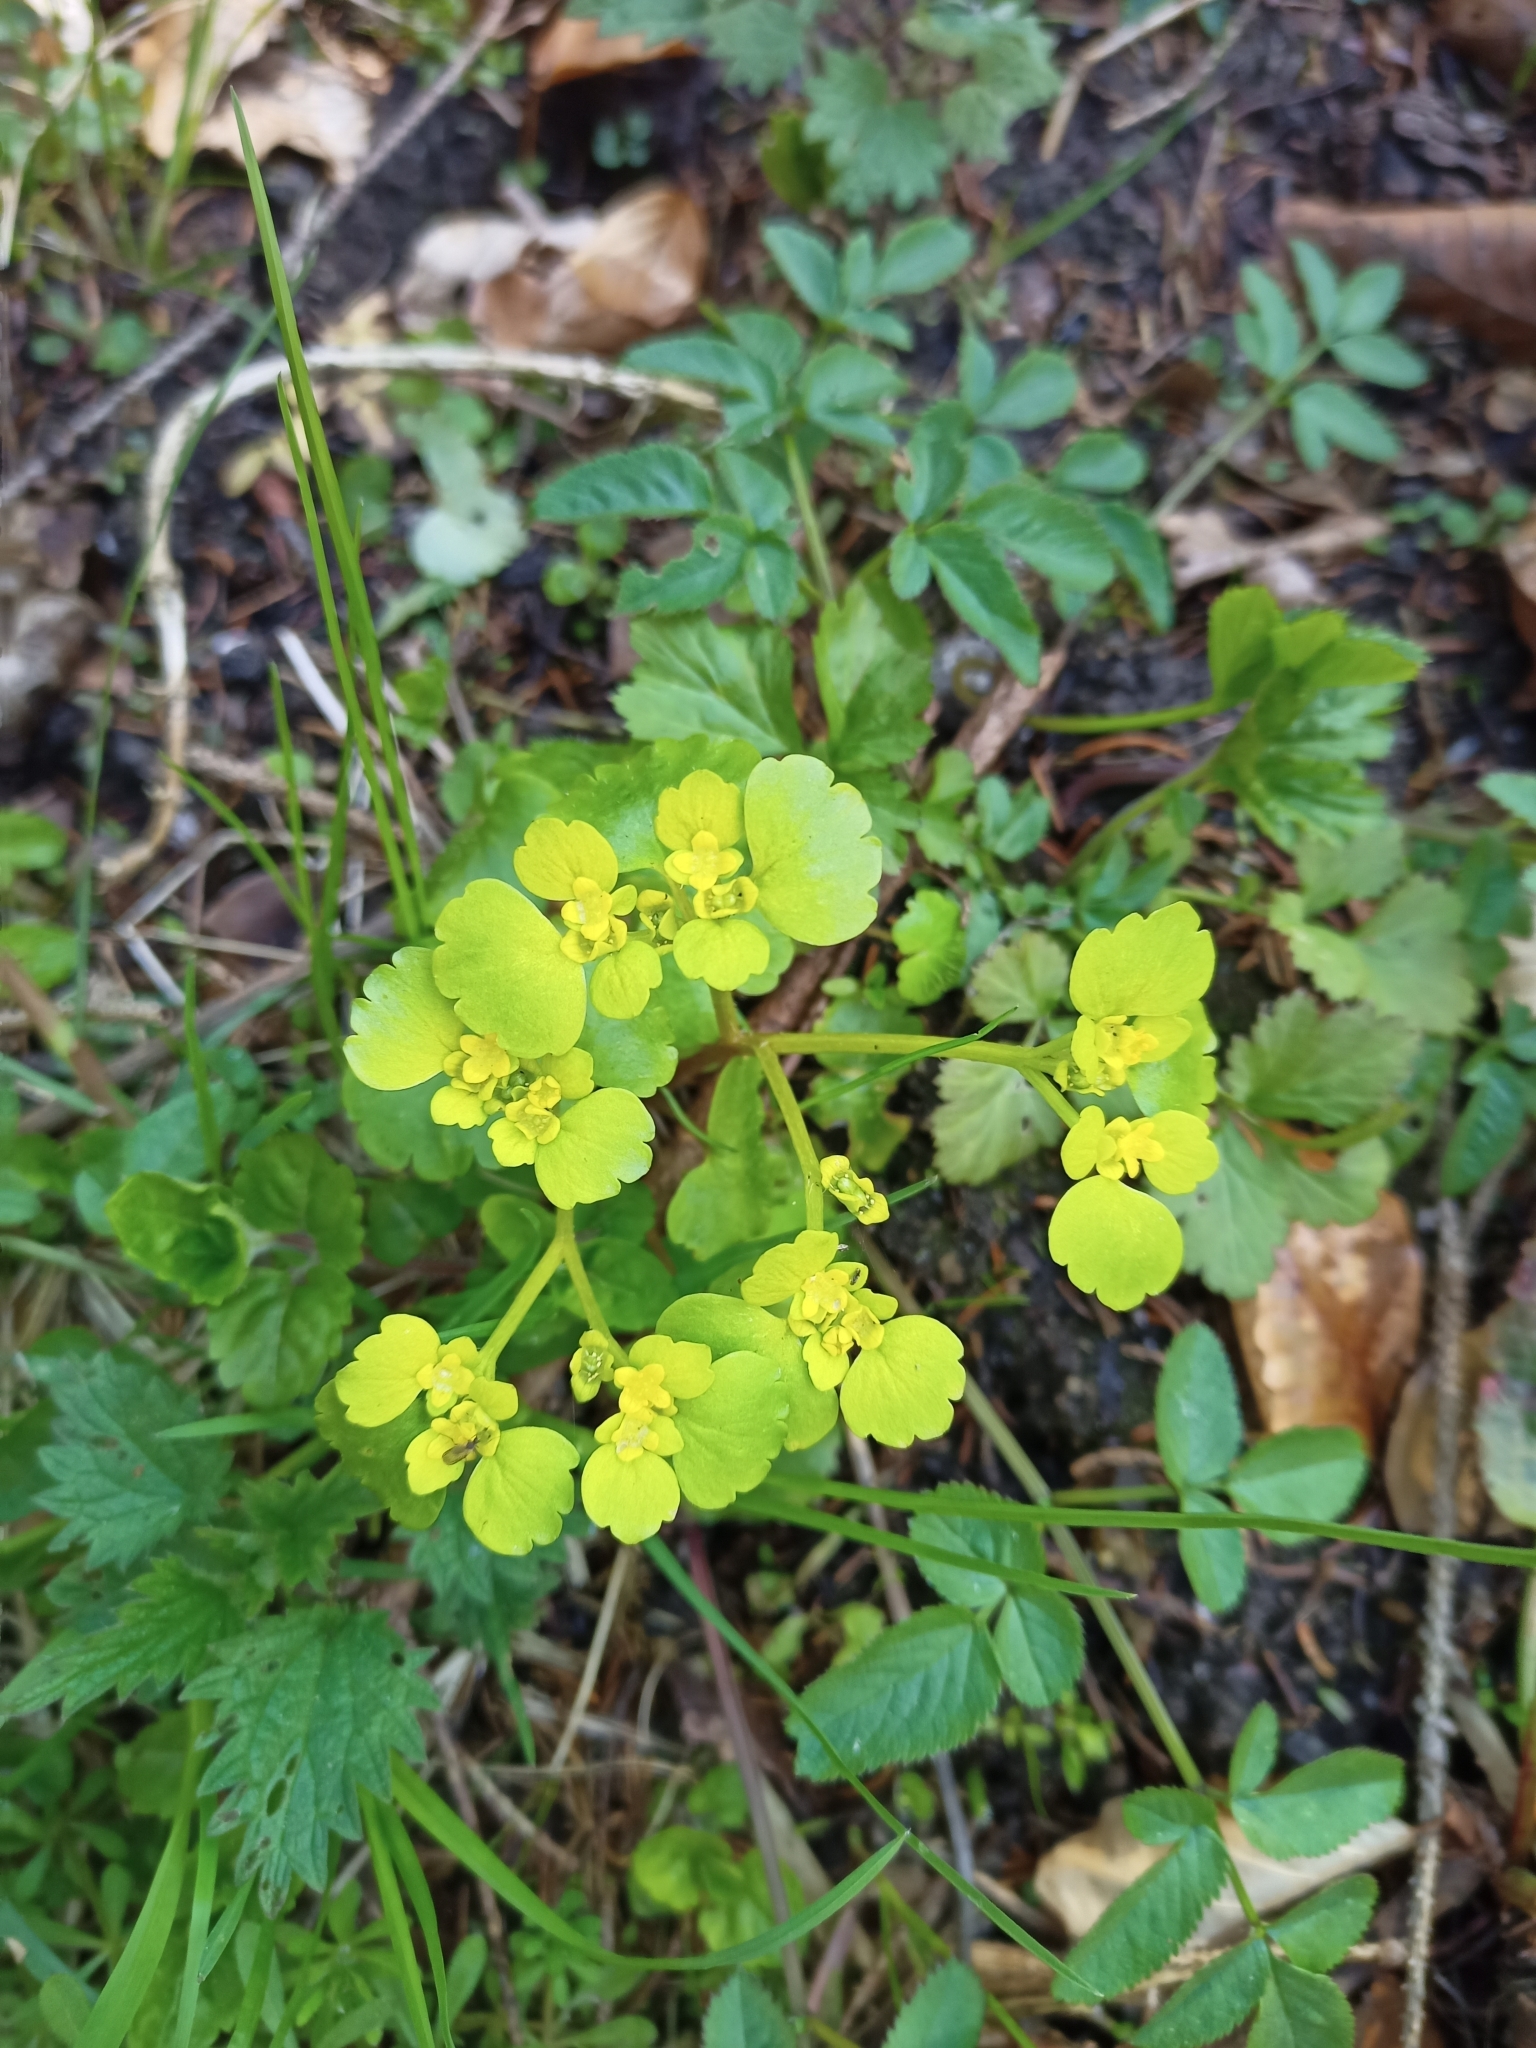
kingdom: Plantae
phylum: Tracheophyta
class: Magnoliopsida
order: Saxifragales
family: Saxifragaceae
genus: Chrysosplenium
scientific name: Chrysosplenium alternifolium
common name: Alternate-leaved golden-saxifrage
